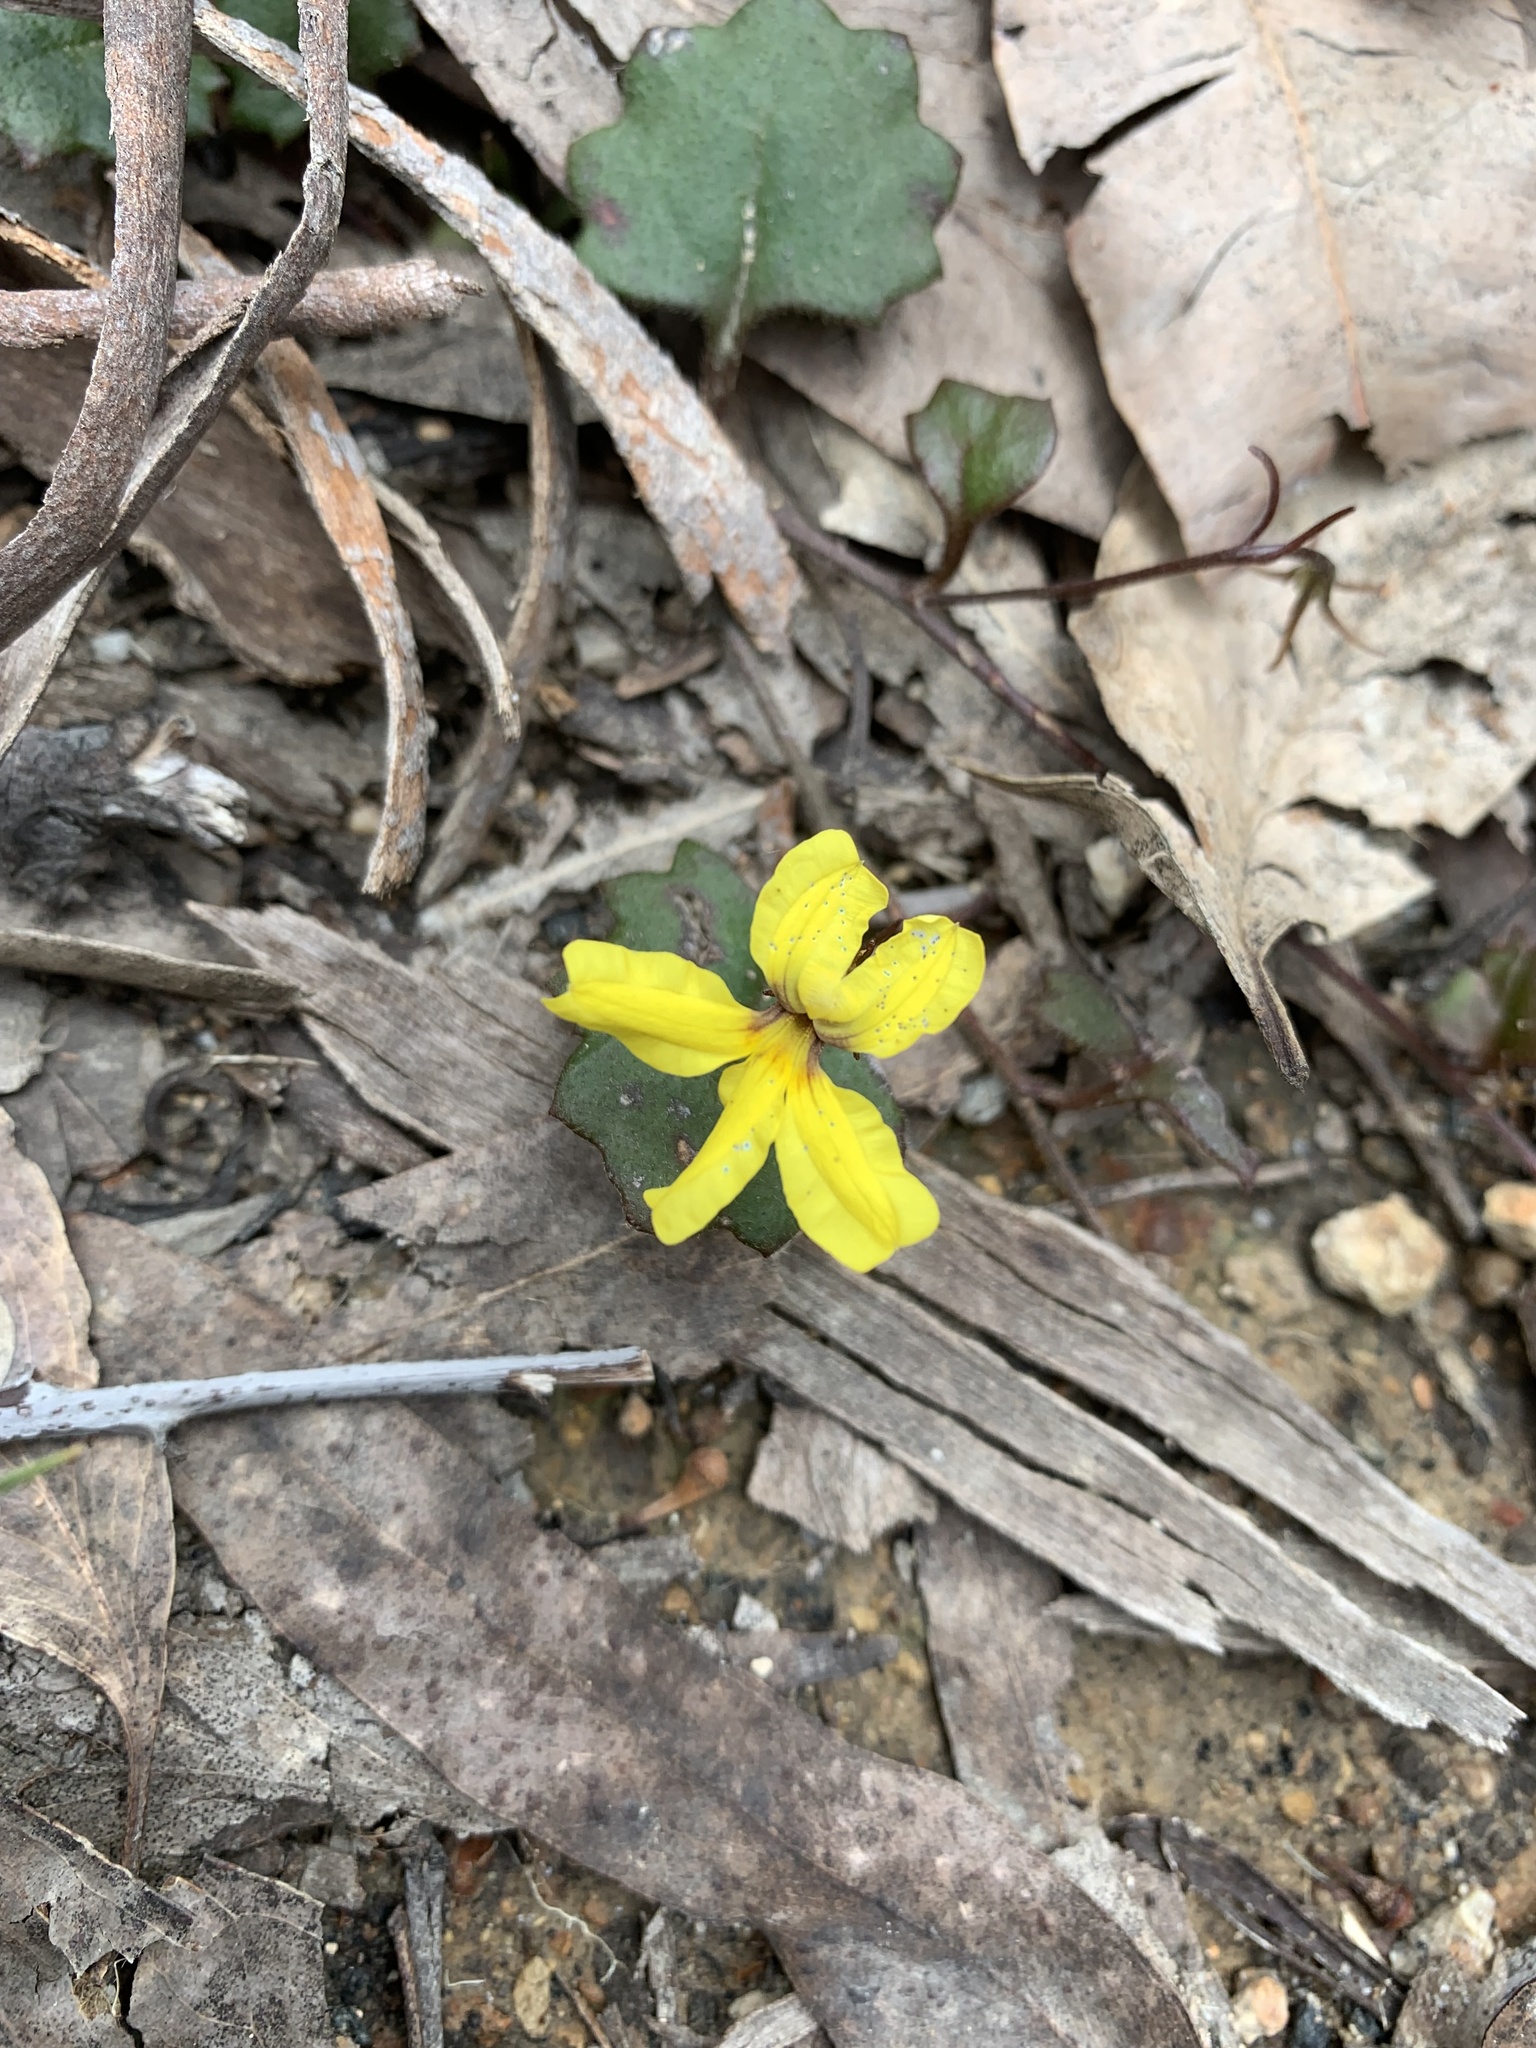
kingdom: Plantae
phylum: Tracheophyta
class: Magnoliopsida
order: Asterales
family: Goodeniaceae
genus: Goodenia
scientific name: Goodenia rotundifolia
